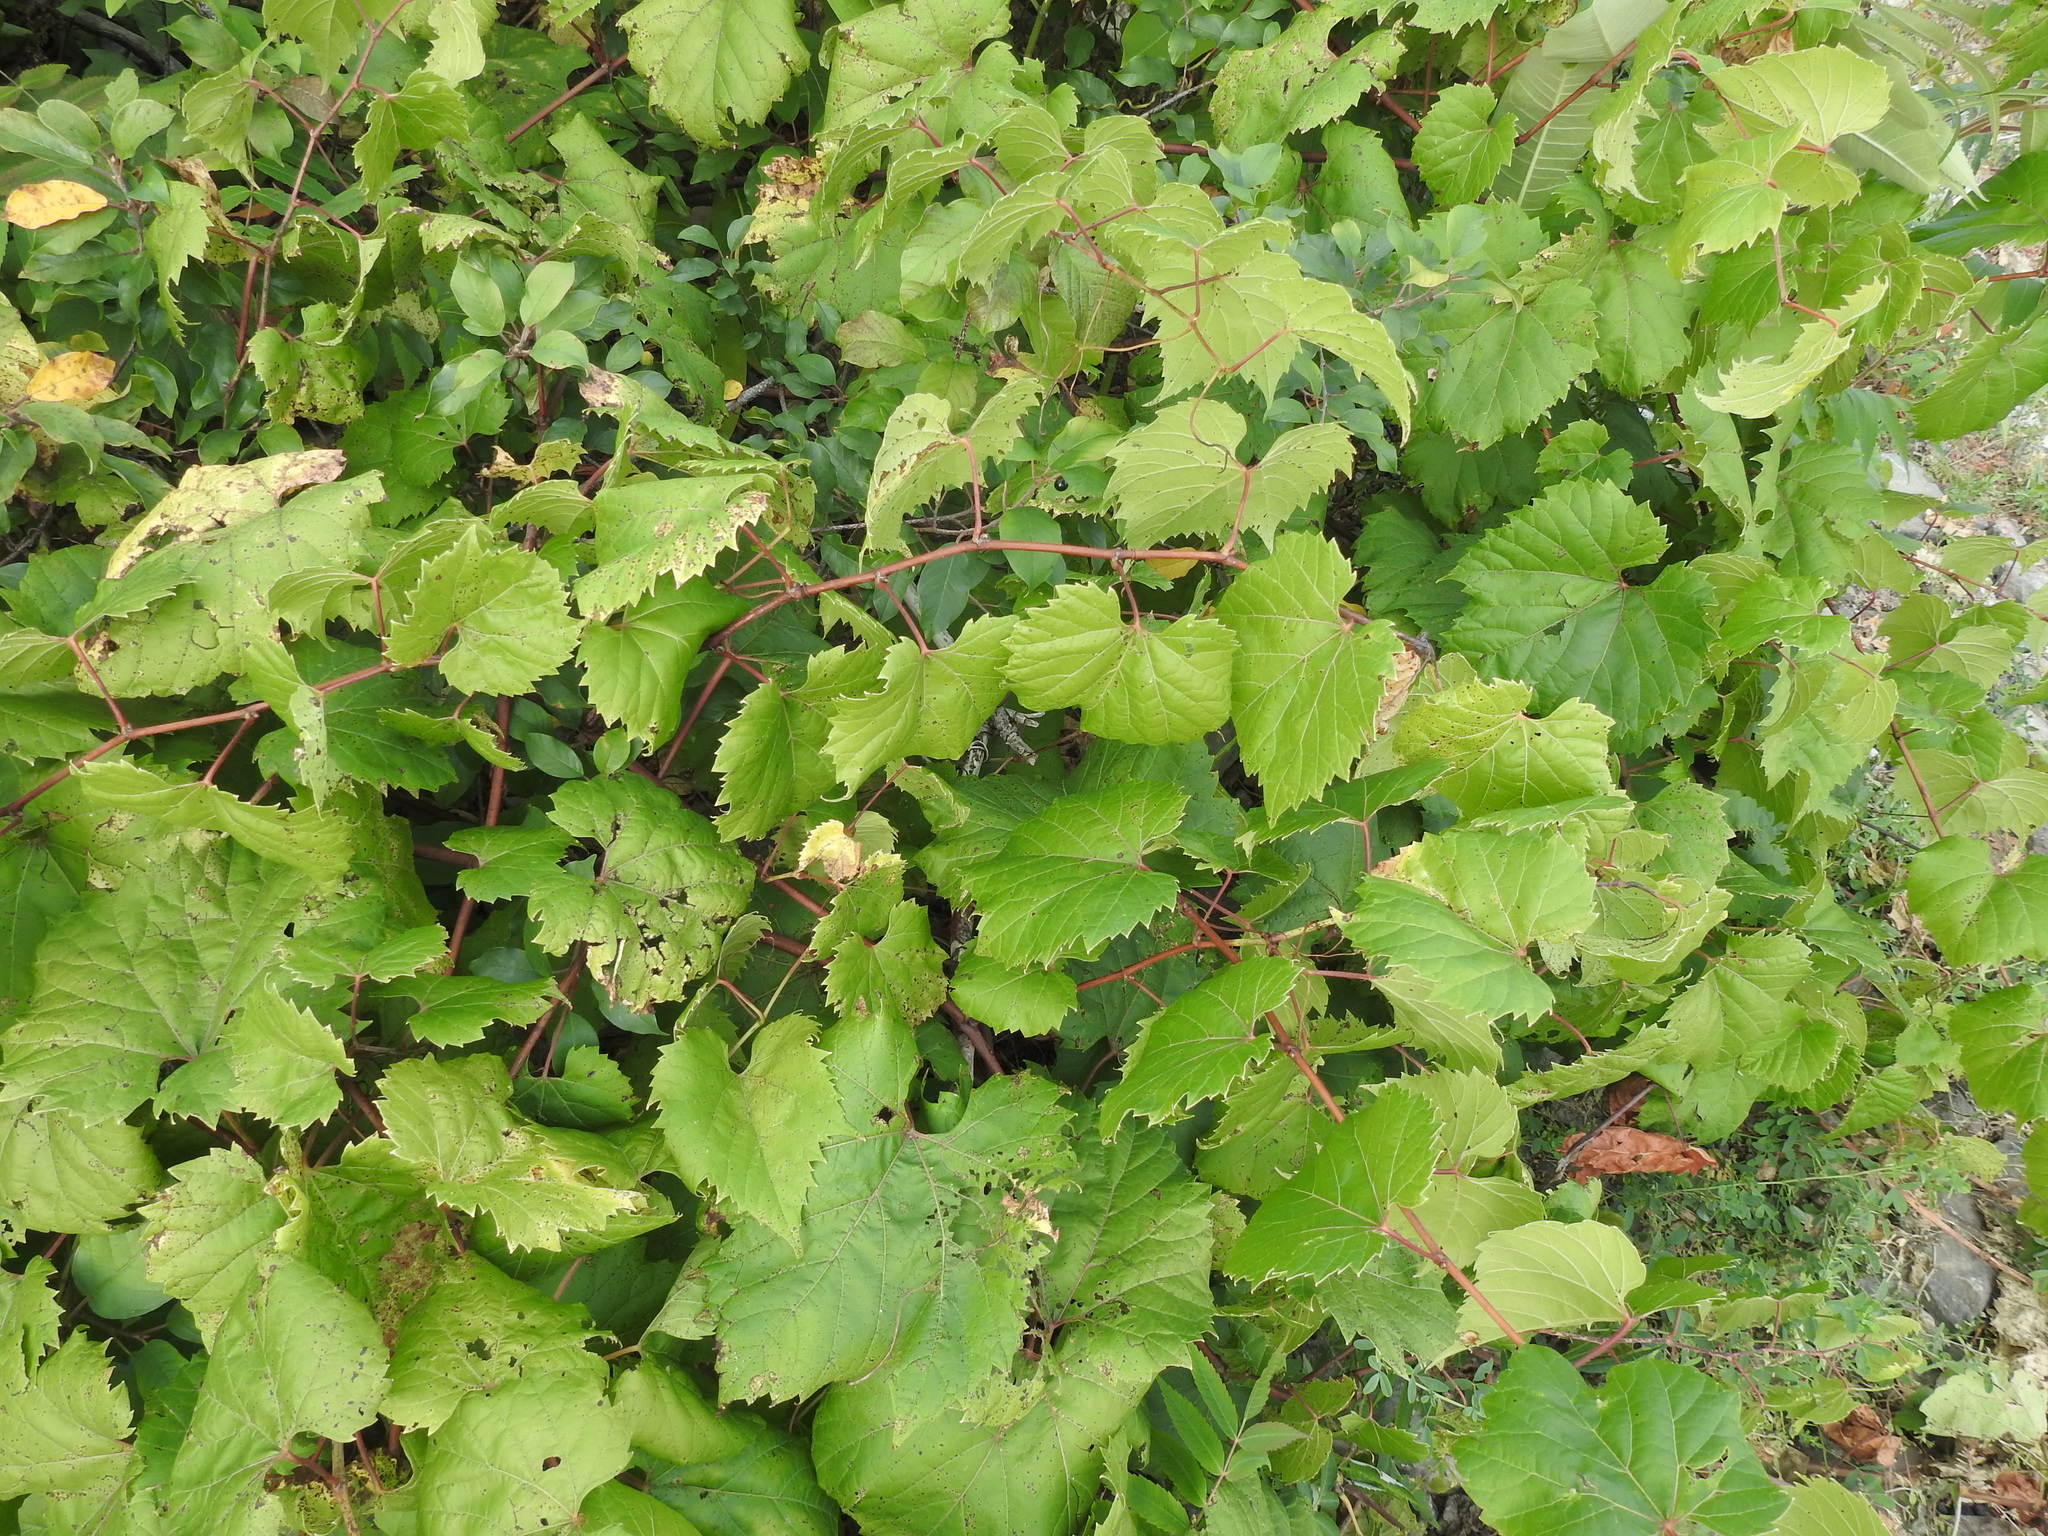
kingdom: Plantae
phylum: Tracheophyta
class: Magnoliopsida
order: Vitales
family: Vitaceae
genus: Vitis
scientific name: Vitis riparia
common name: Frost grape
